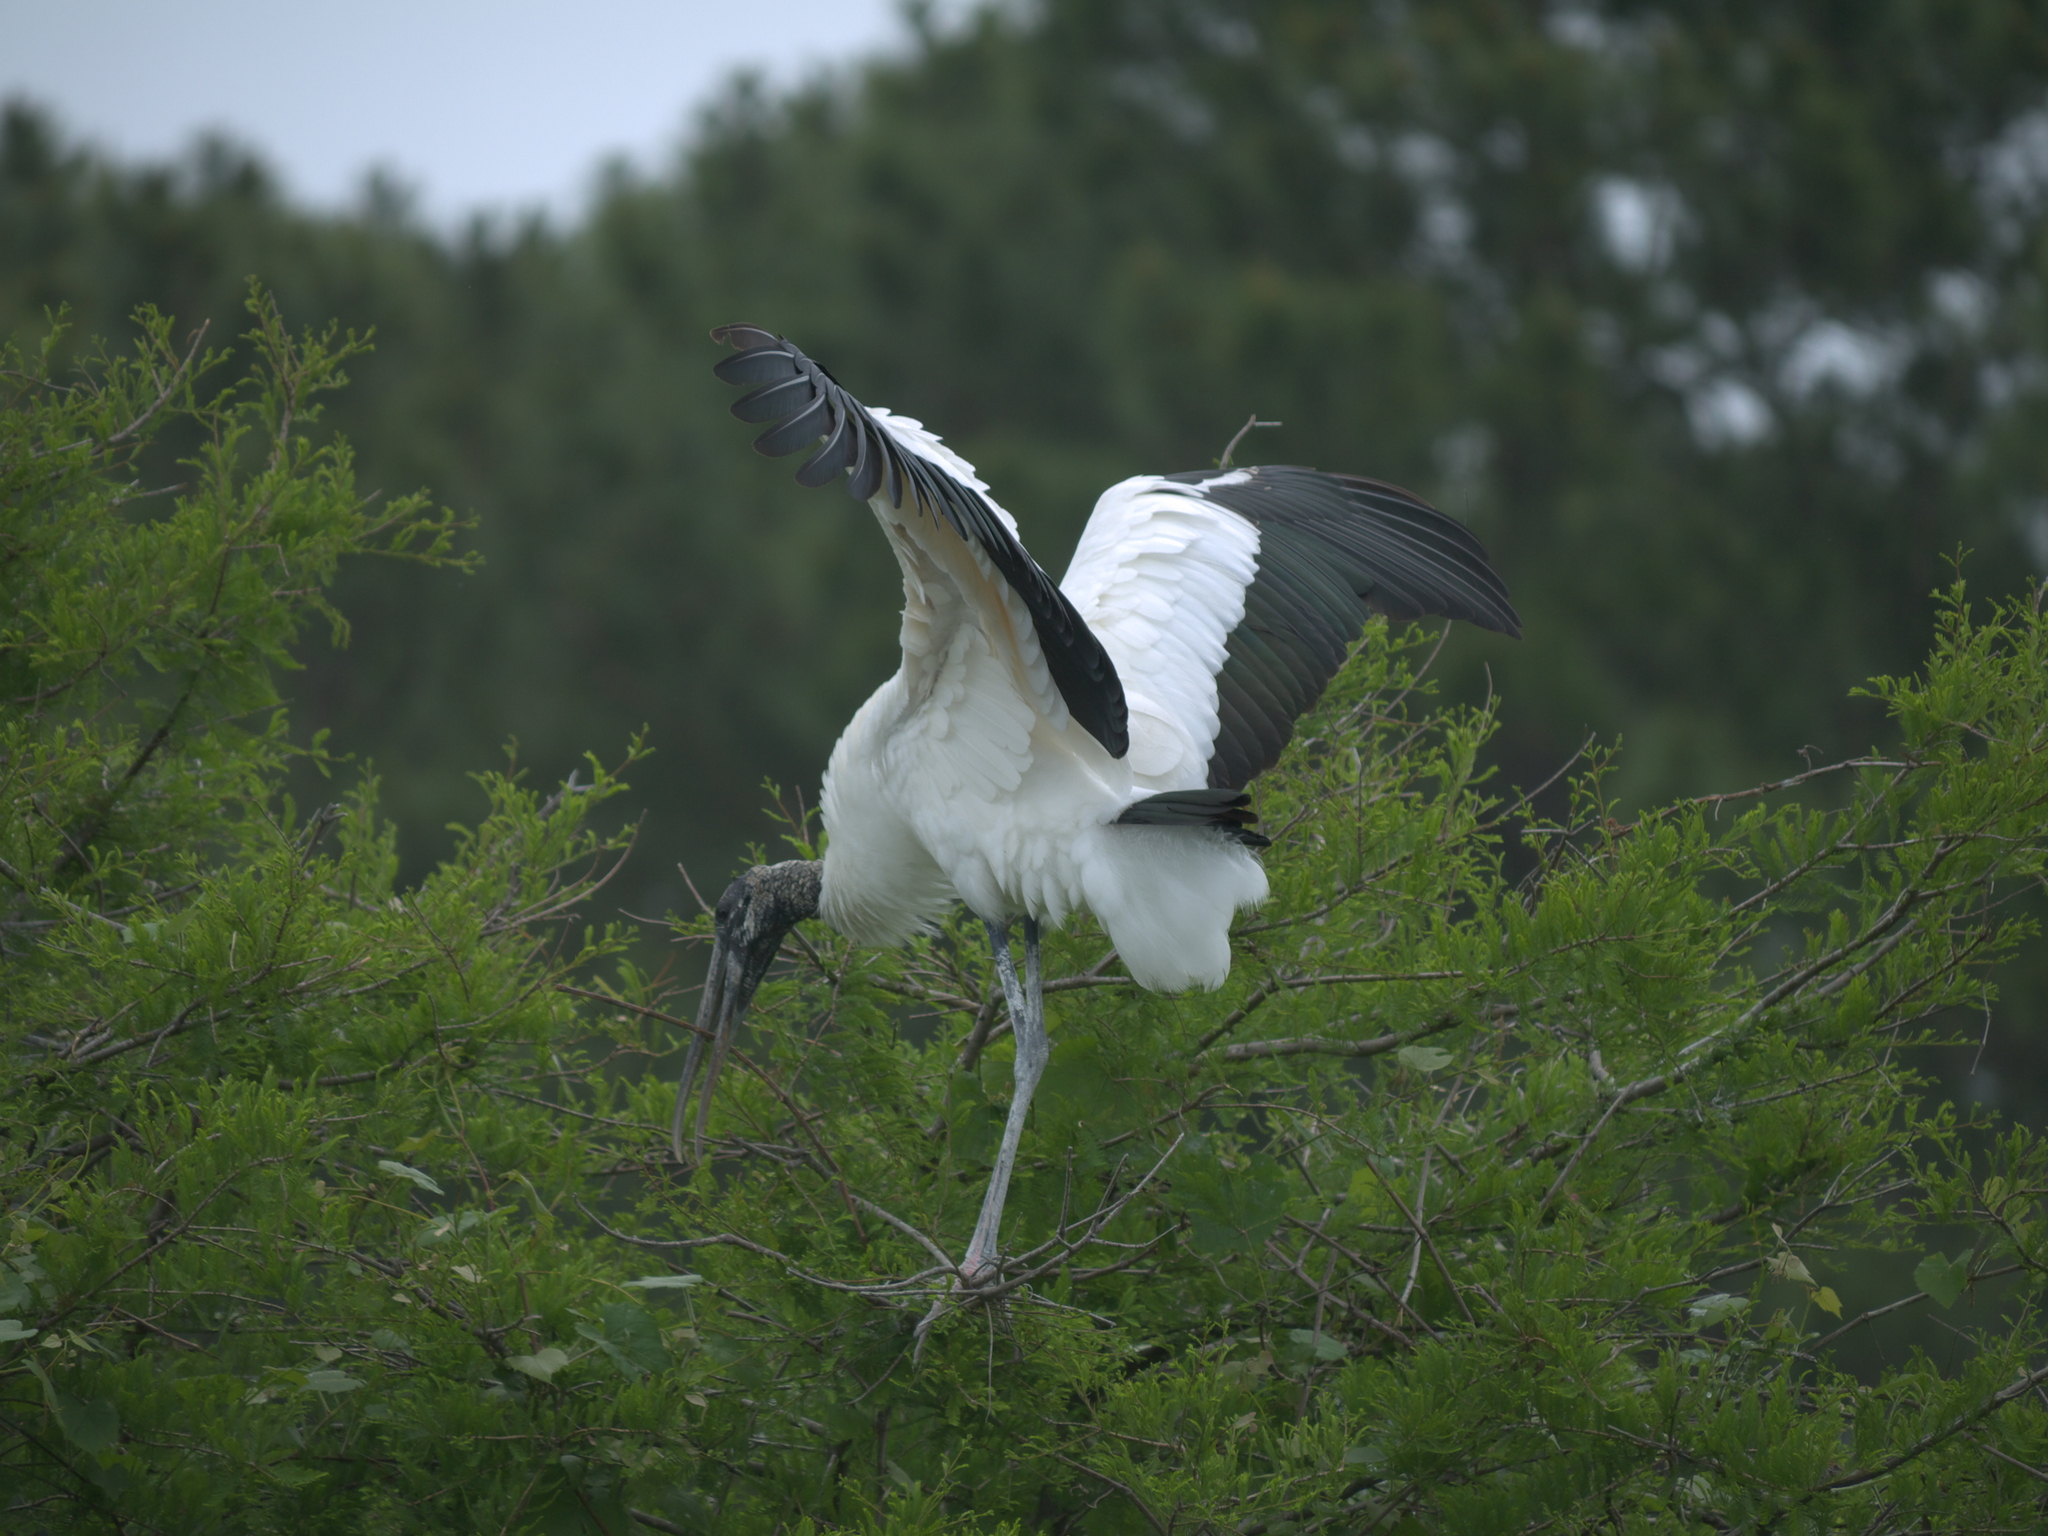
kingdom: Animalia
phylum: Chordata
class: Aves
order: Ciconiiformes
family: Ciconiidae
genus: Mycteria
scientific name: Mycteria americana
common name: Wood stork
